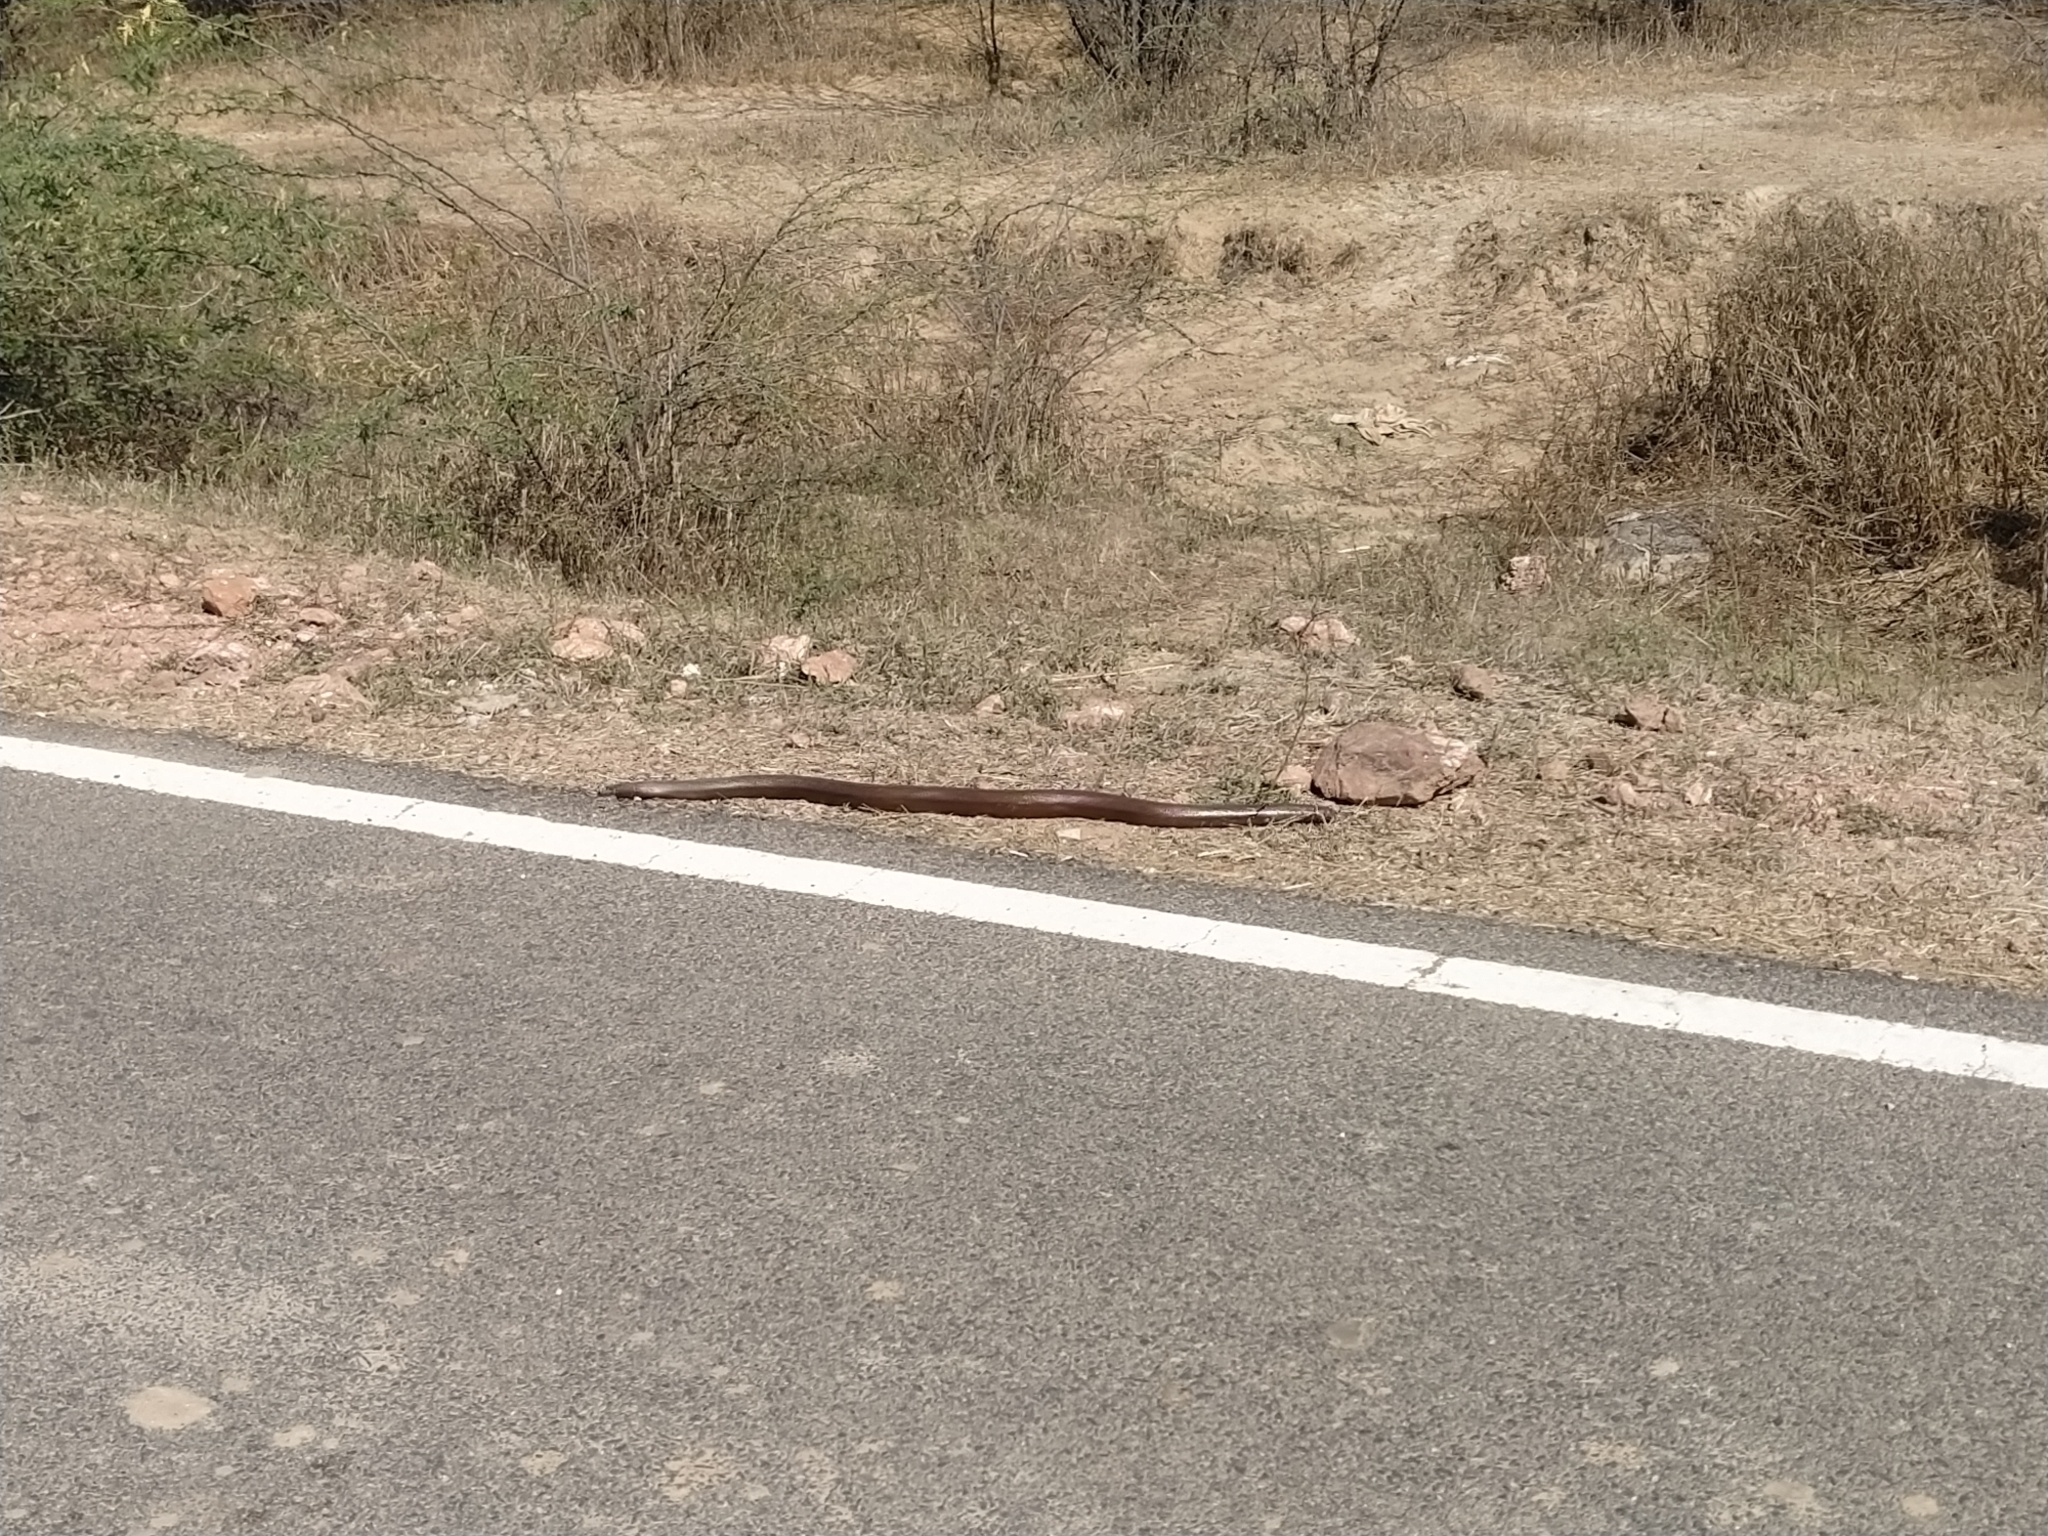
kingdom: Animalia
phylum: Chordata
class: Squamata
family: Boidae
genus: Eryx
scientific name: Eryx johnii
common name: Brown sand boa
